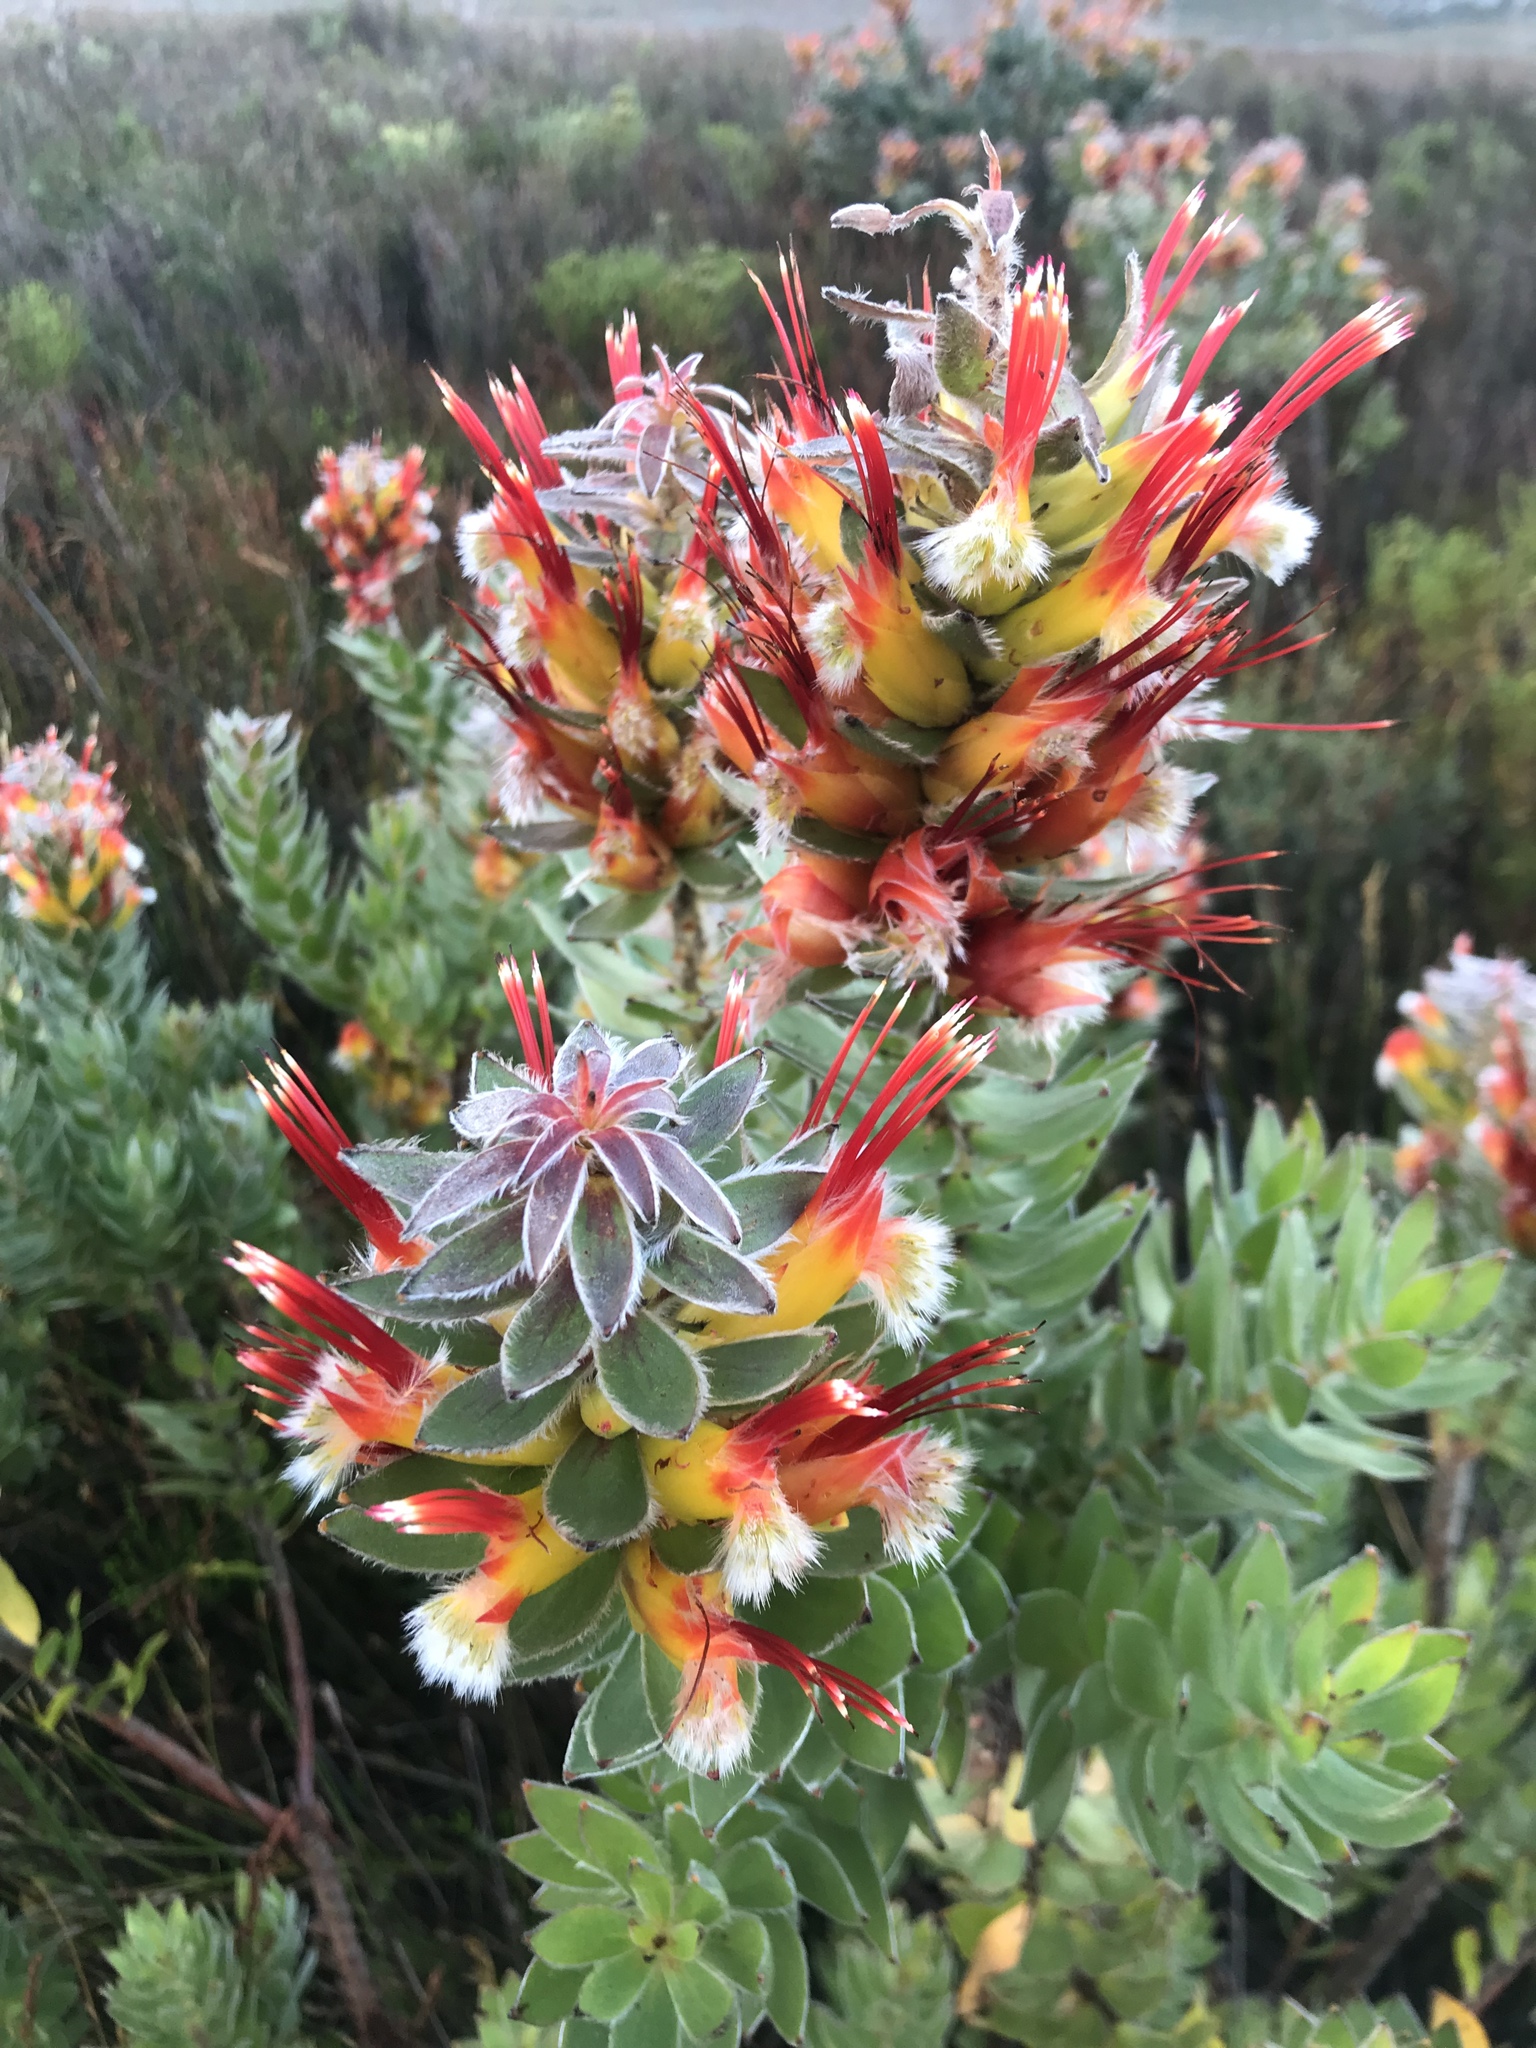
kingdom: Plantae
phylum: Tracheophyta
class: Magnoliopsida
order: Proteales
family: Proteaceae
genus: Mimetes
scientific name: Mimetes hirtus
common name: Marsh pagoda
